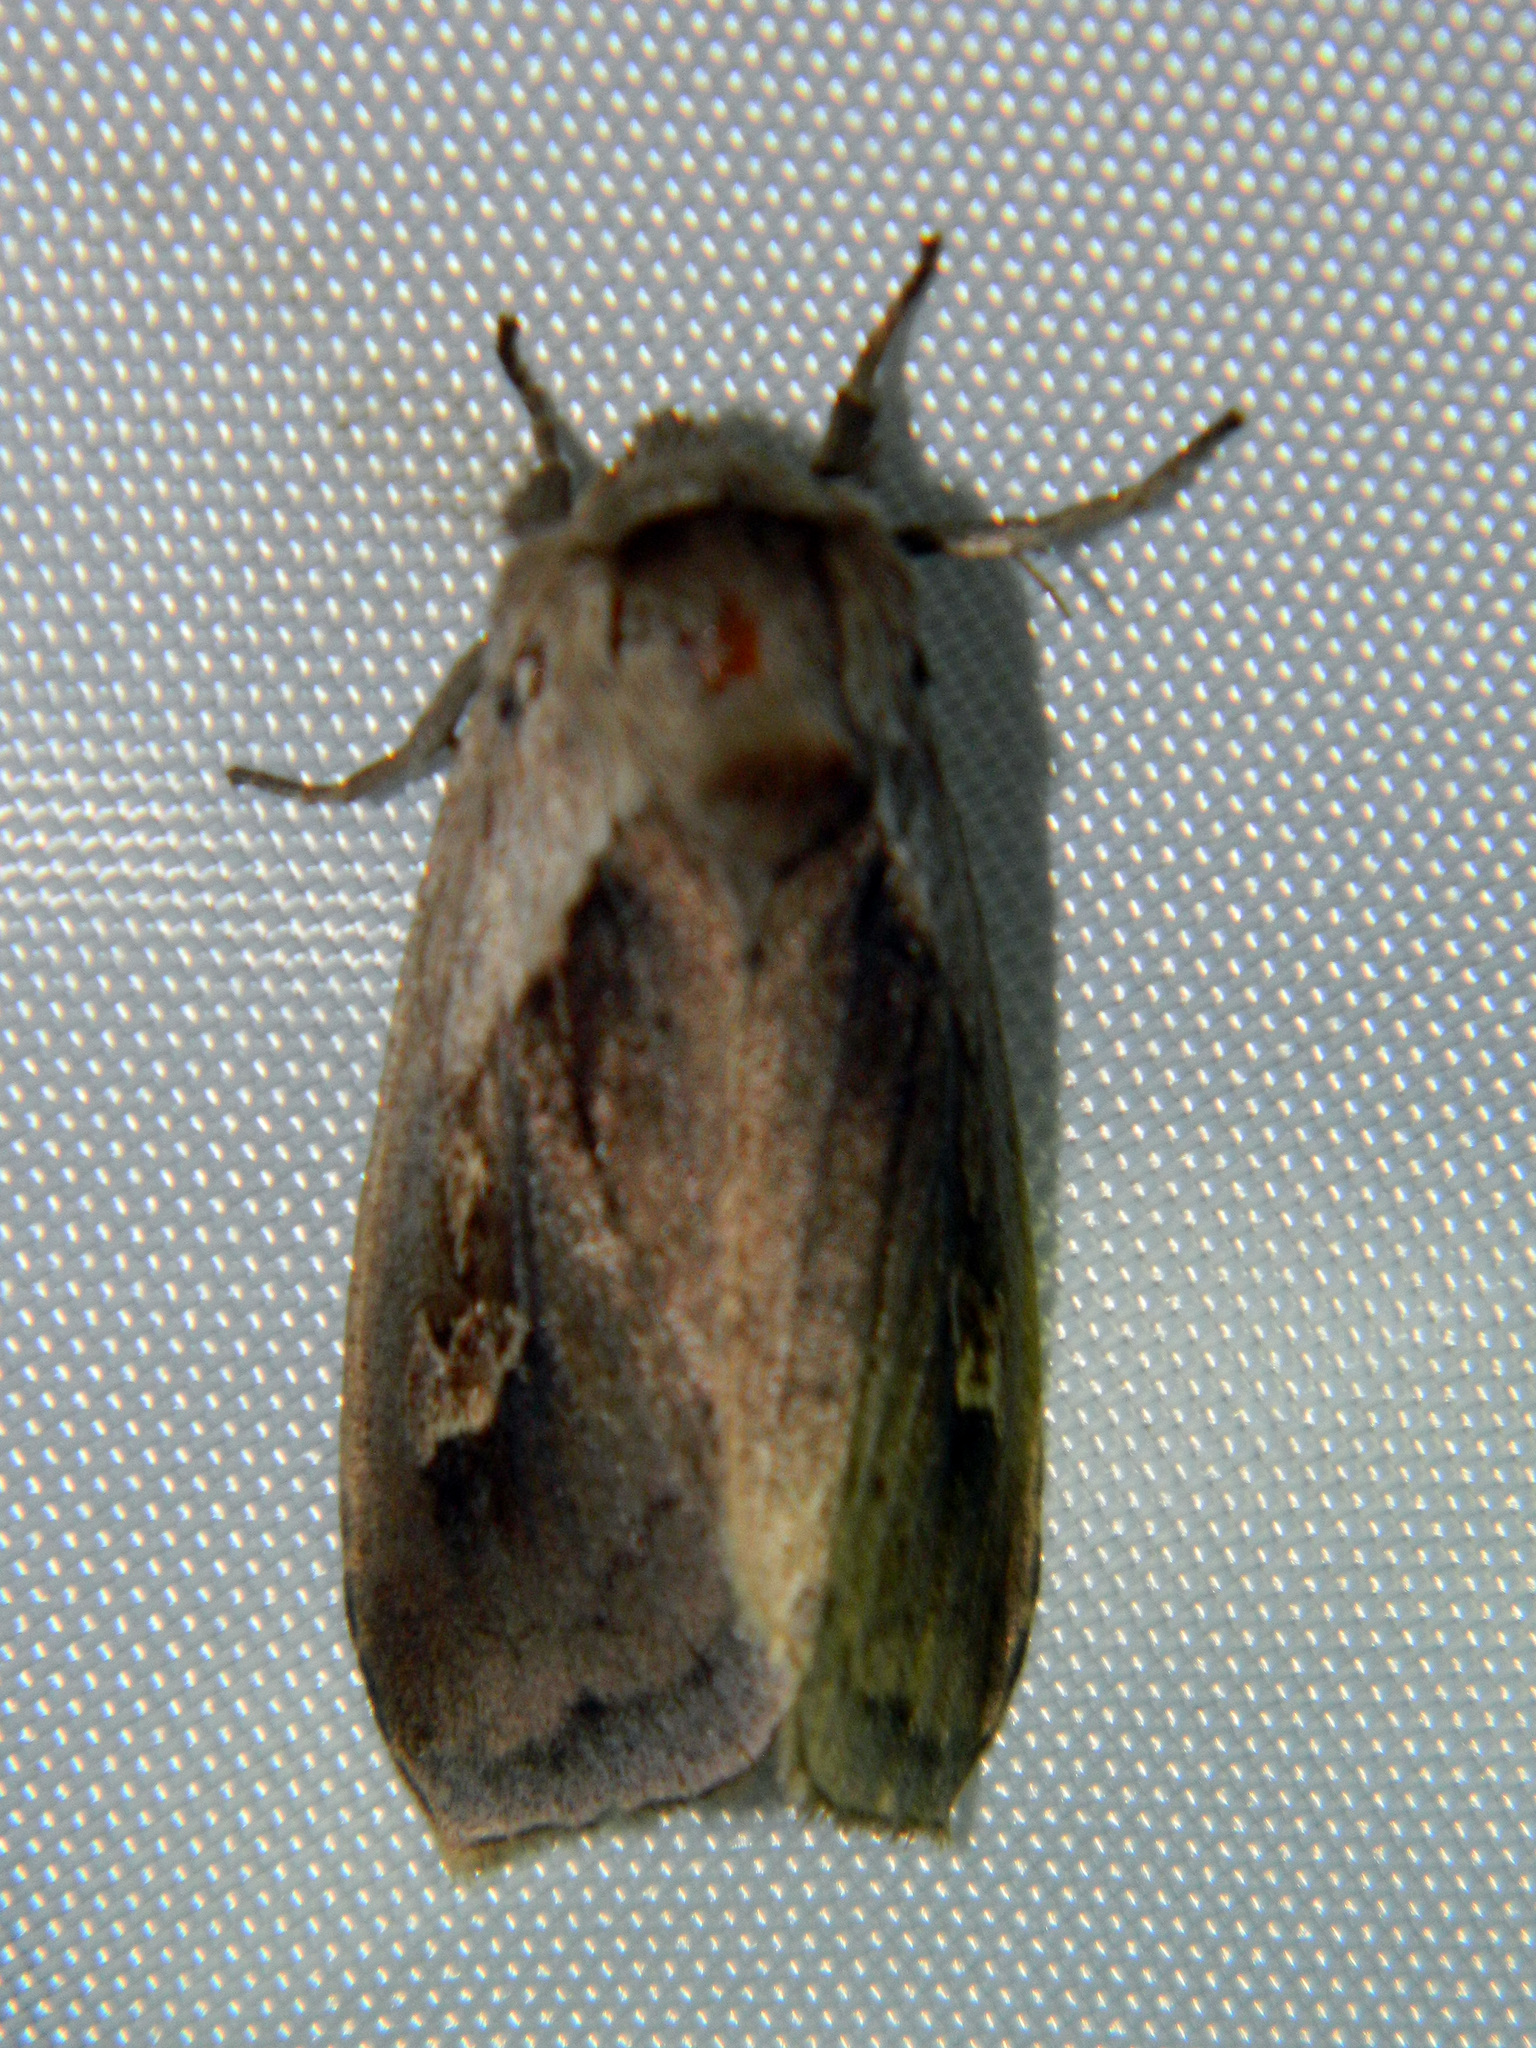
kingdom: Animalia
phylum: Arthropoda
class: Insecta
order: Lepidoptera
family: Noctuidae
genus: Bellura
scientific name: Bellura obliqua
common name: Cattail borer moth
